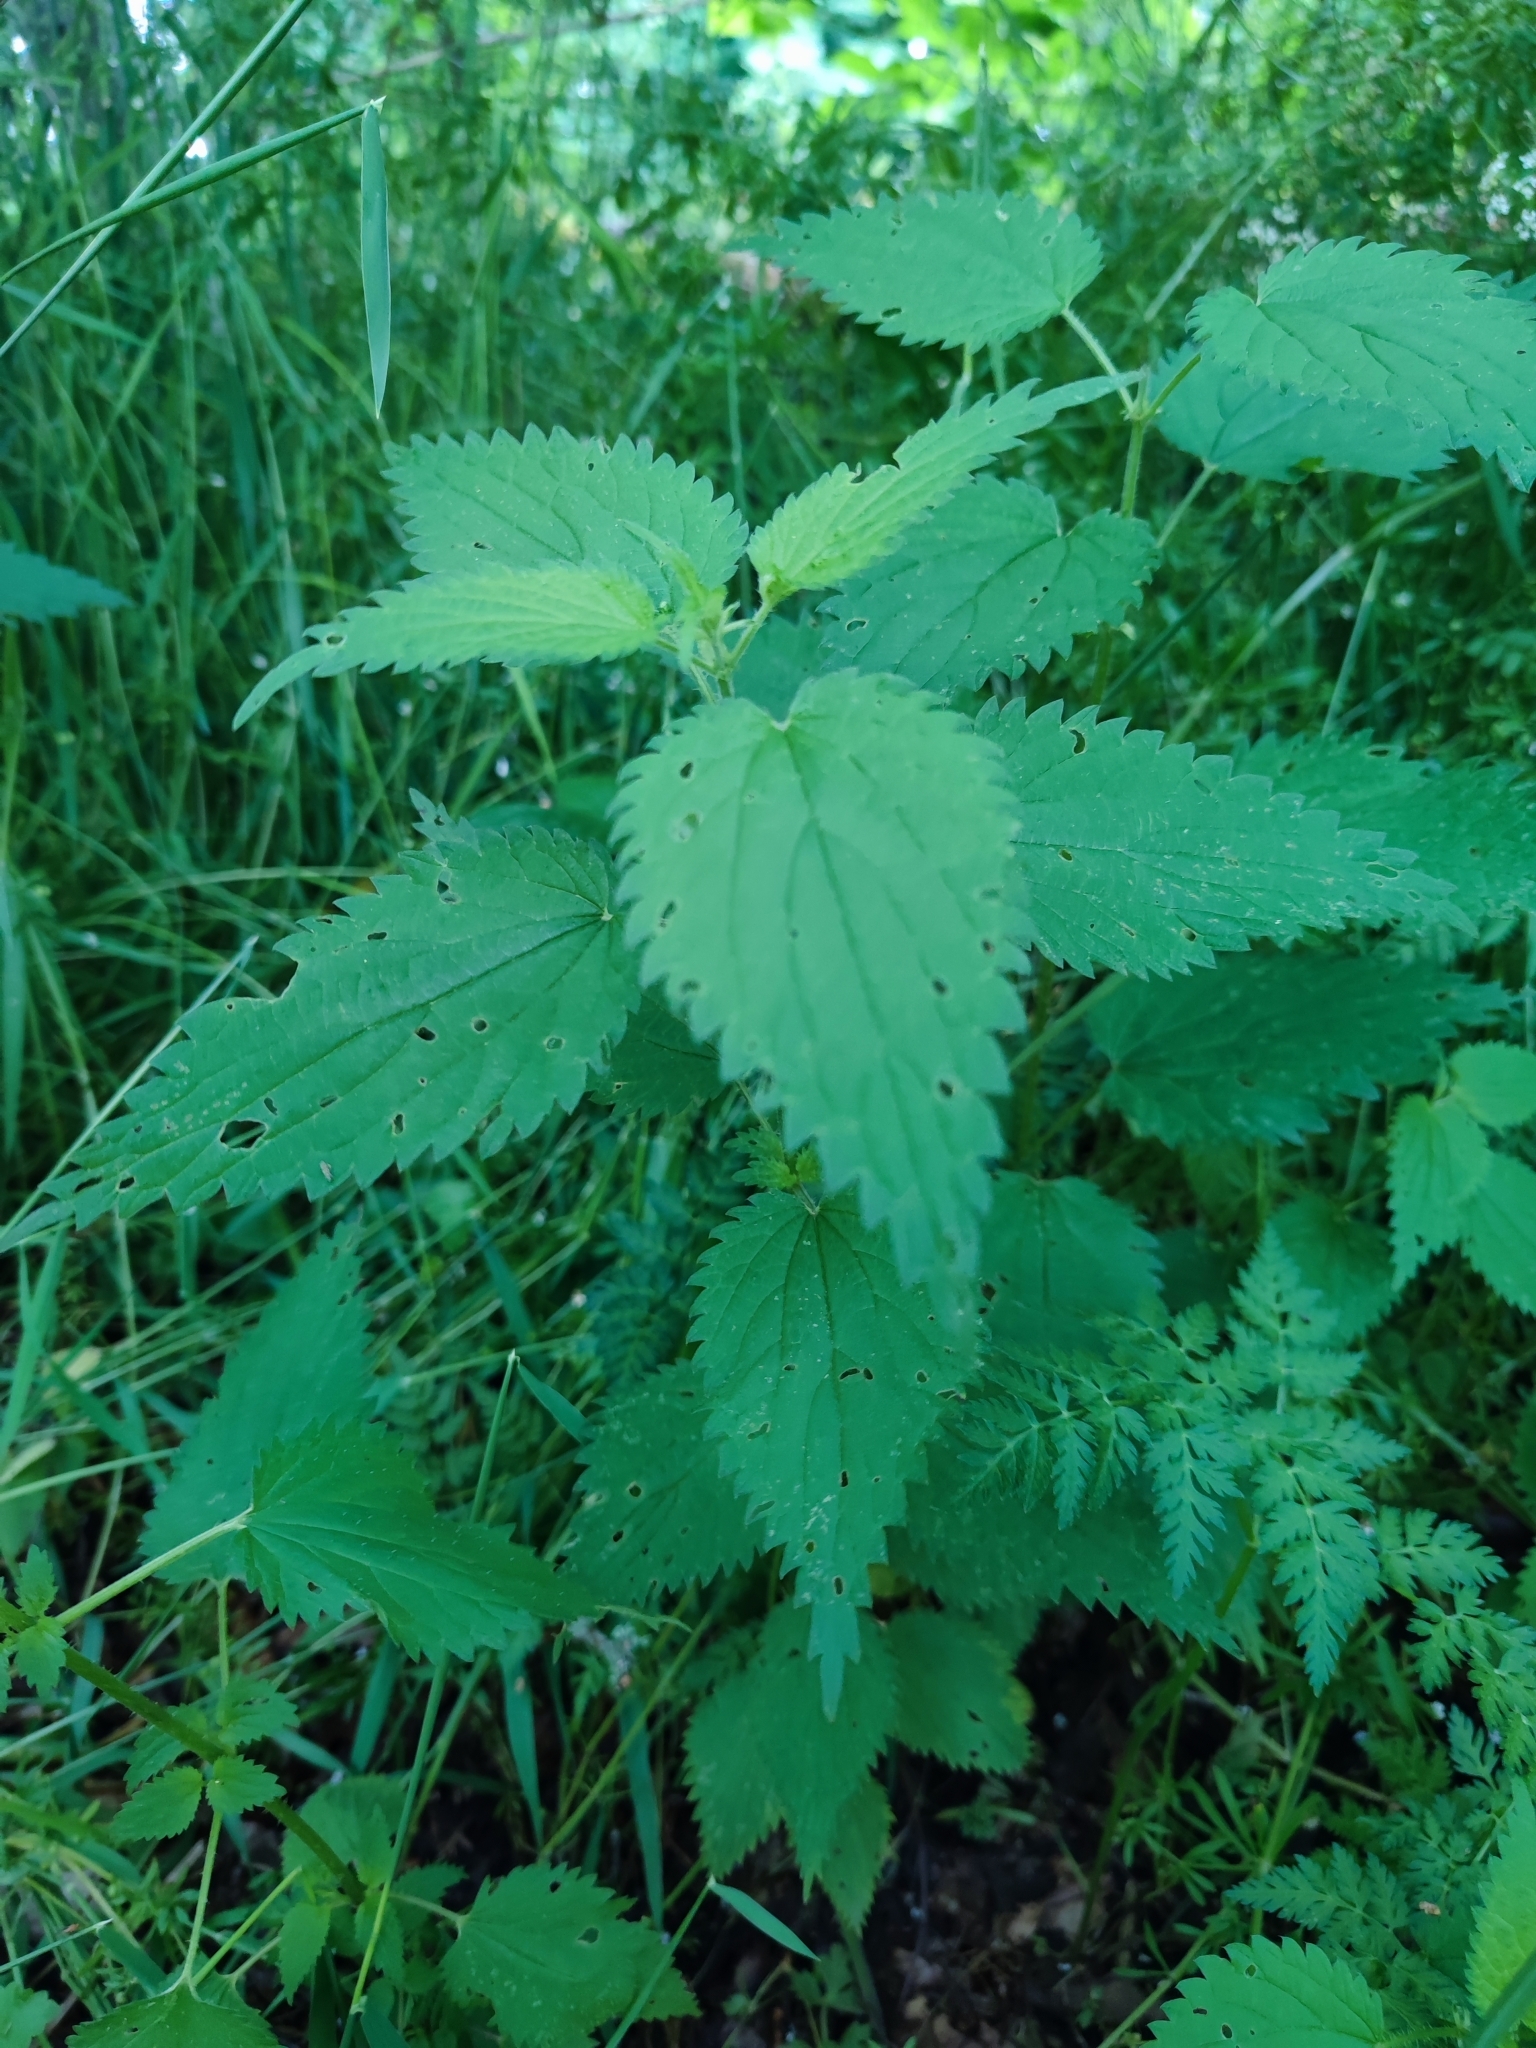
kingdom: Plantae
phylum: Tracheophyta
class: Magnoliopsida
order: Rosales
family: Urticaceae
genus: Urtica
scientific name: Urtica dioica
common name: Common nettle
